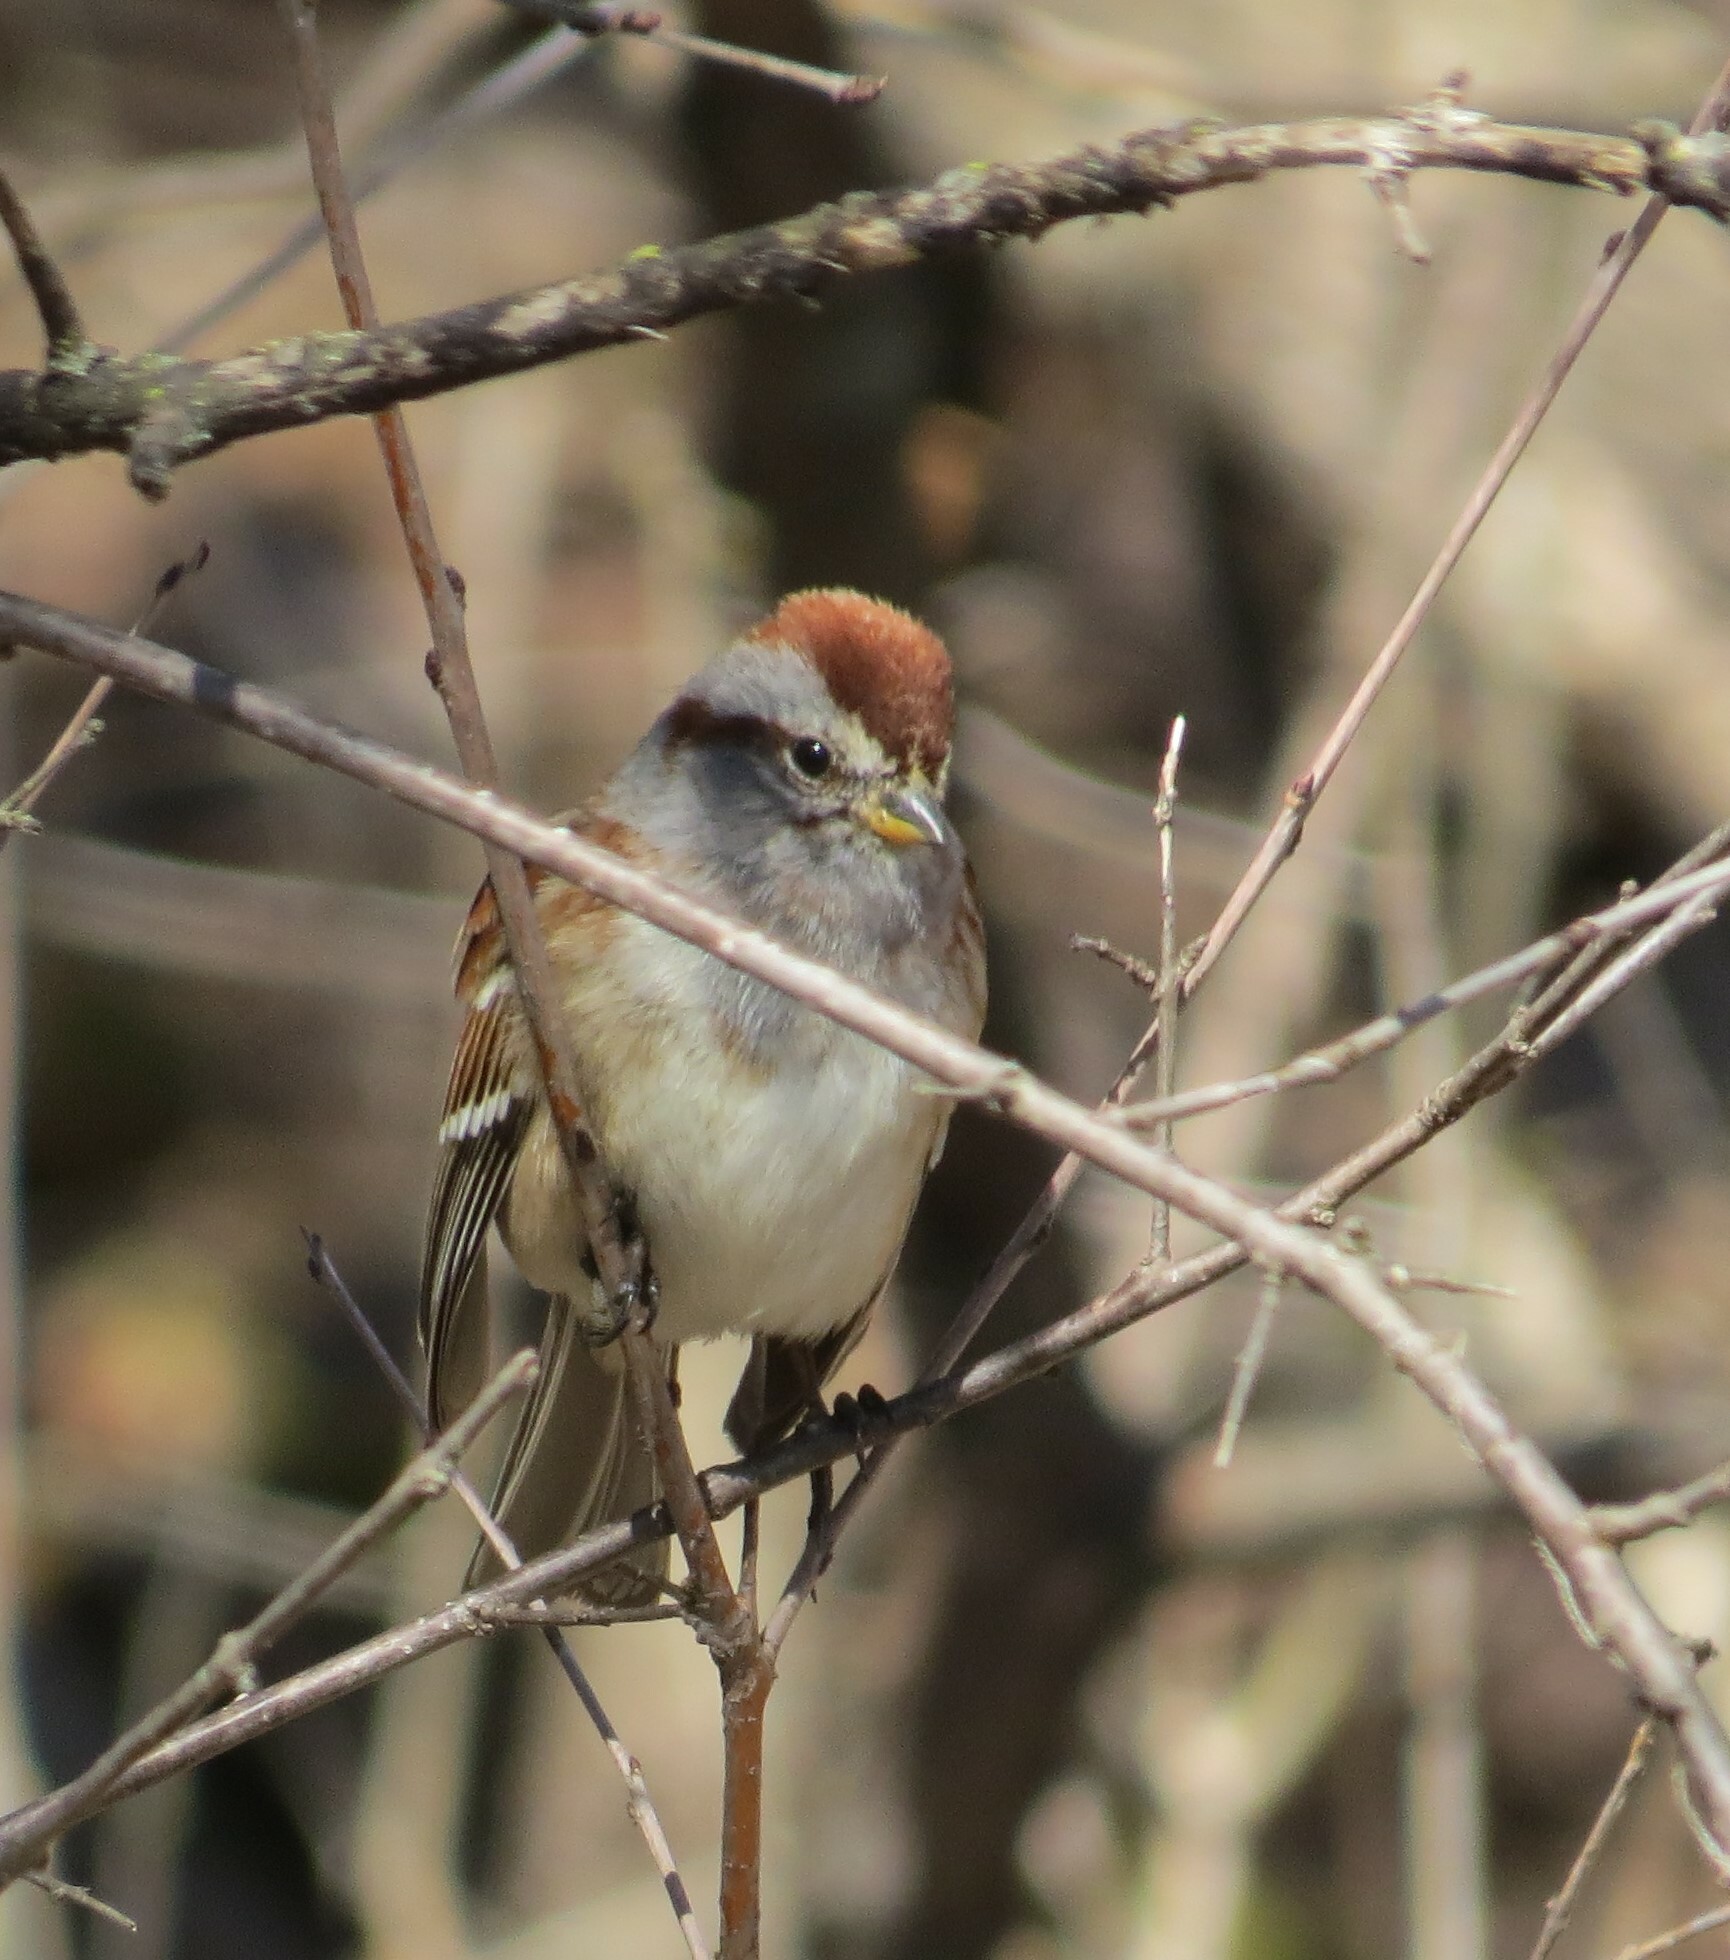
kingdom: Animalia
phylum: Chordata
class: Aves
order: Passeriformes
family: Passerellidae
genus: Spizelloides
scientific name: Spizelloides arborea
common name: American tree sparrow
